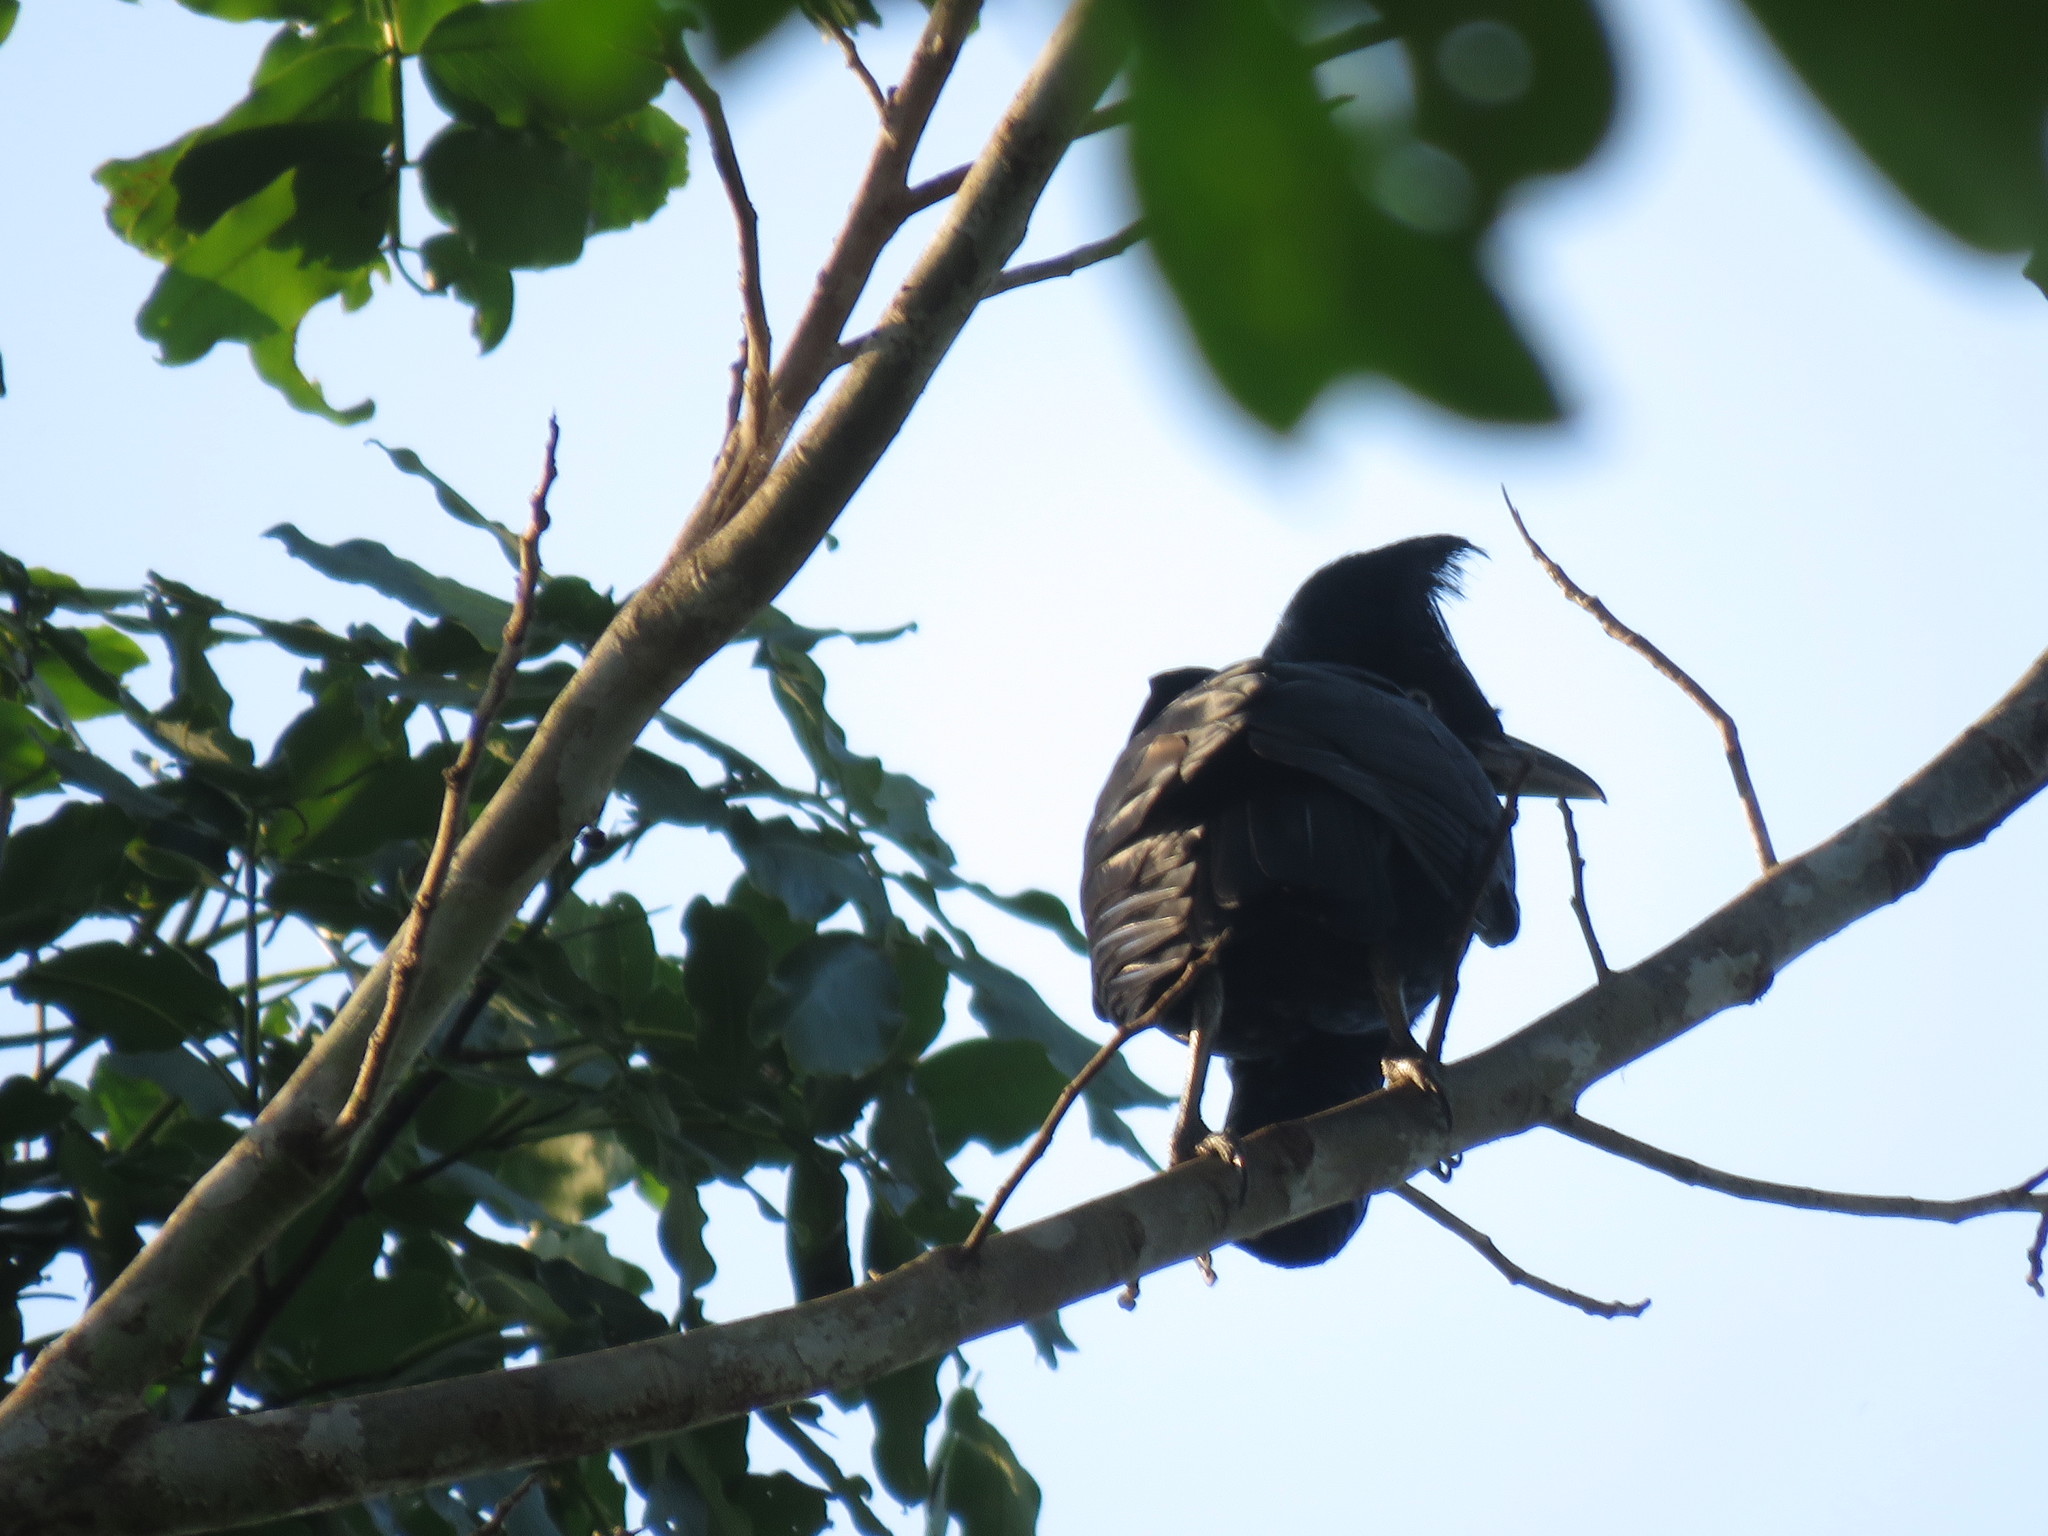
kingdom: Animalia
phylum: Chordata
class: Aves
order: Passeriformes
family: Cotingidae
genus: Cephalopterus
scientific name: Cephalopterus ornatus
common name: Amazonian umbrellabird
